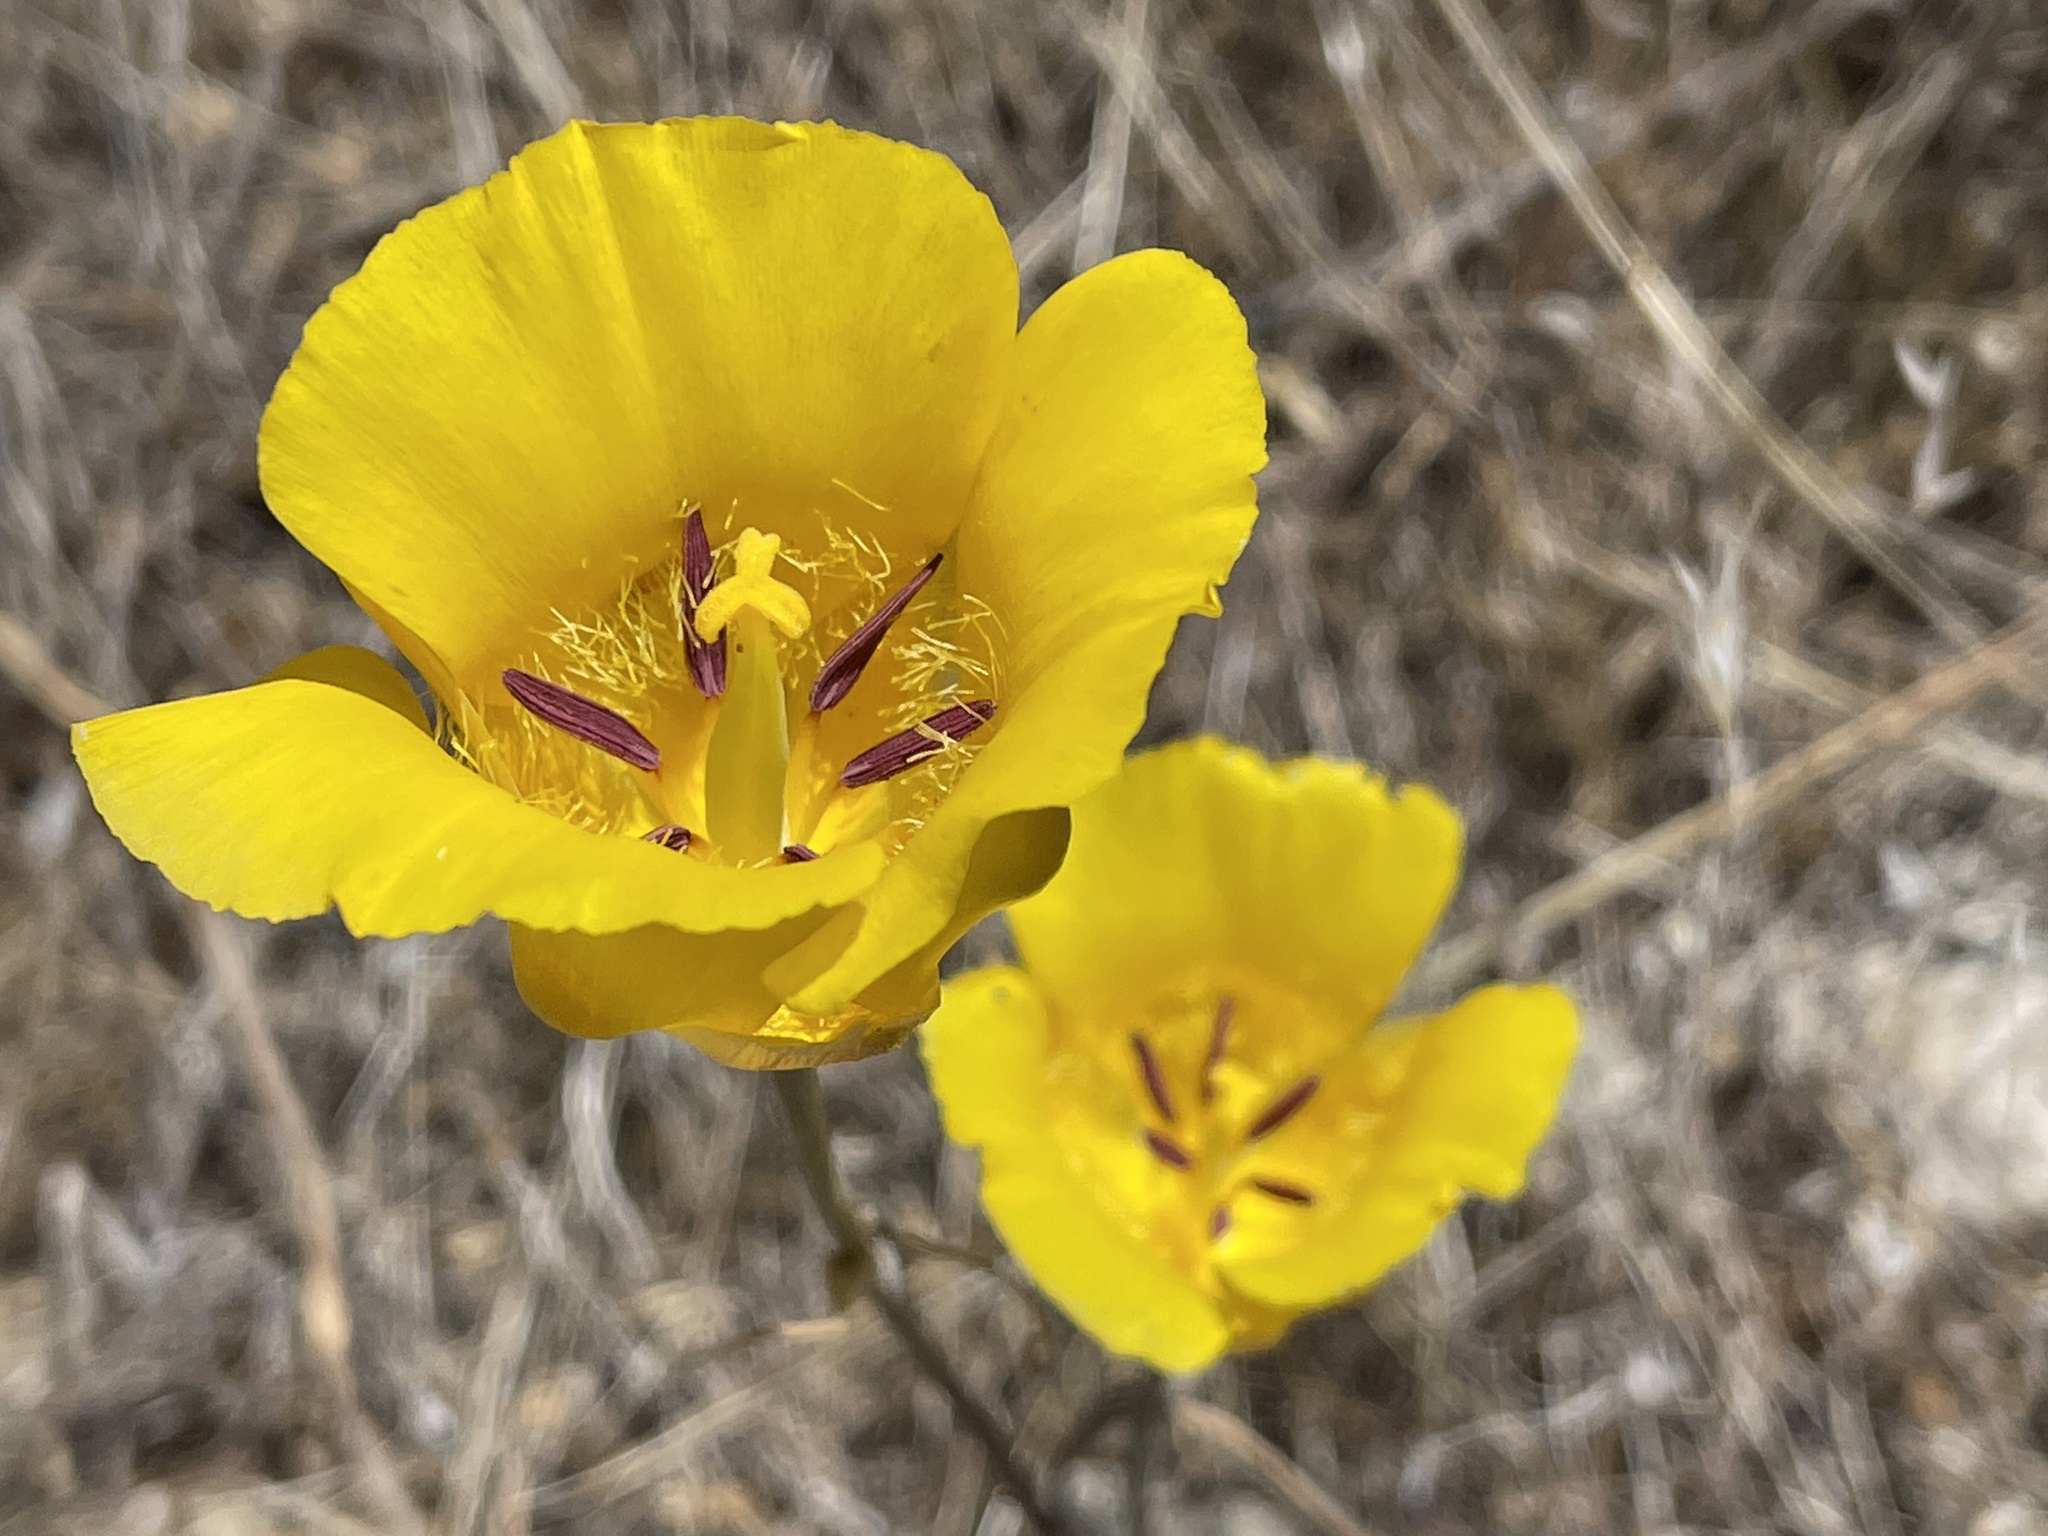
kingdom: Plantae
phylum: Tracheophyta
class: Liliopsida
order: Liliales
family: Liliaceae
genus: Calochortus
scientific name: Calochortus clavatus
